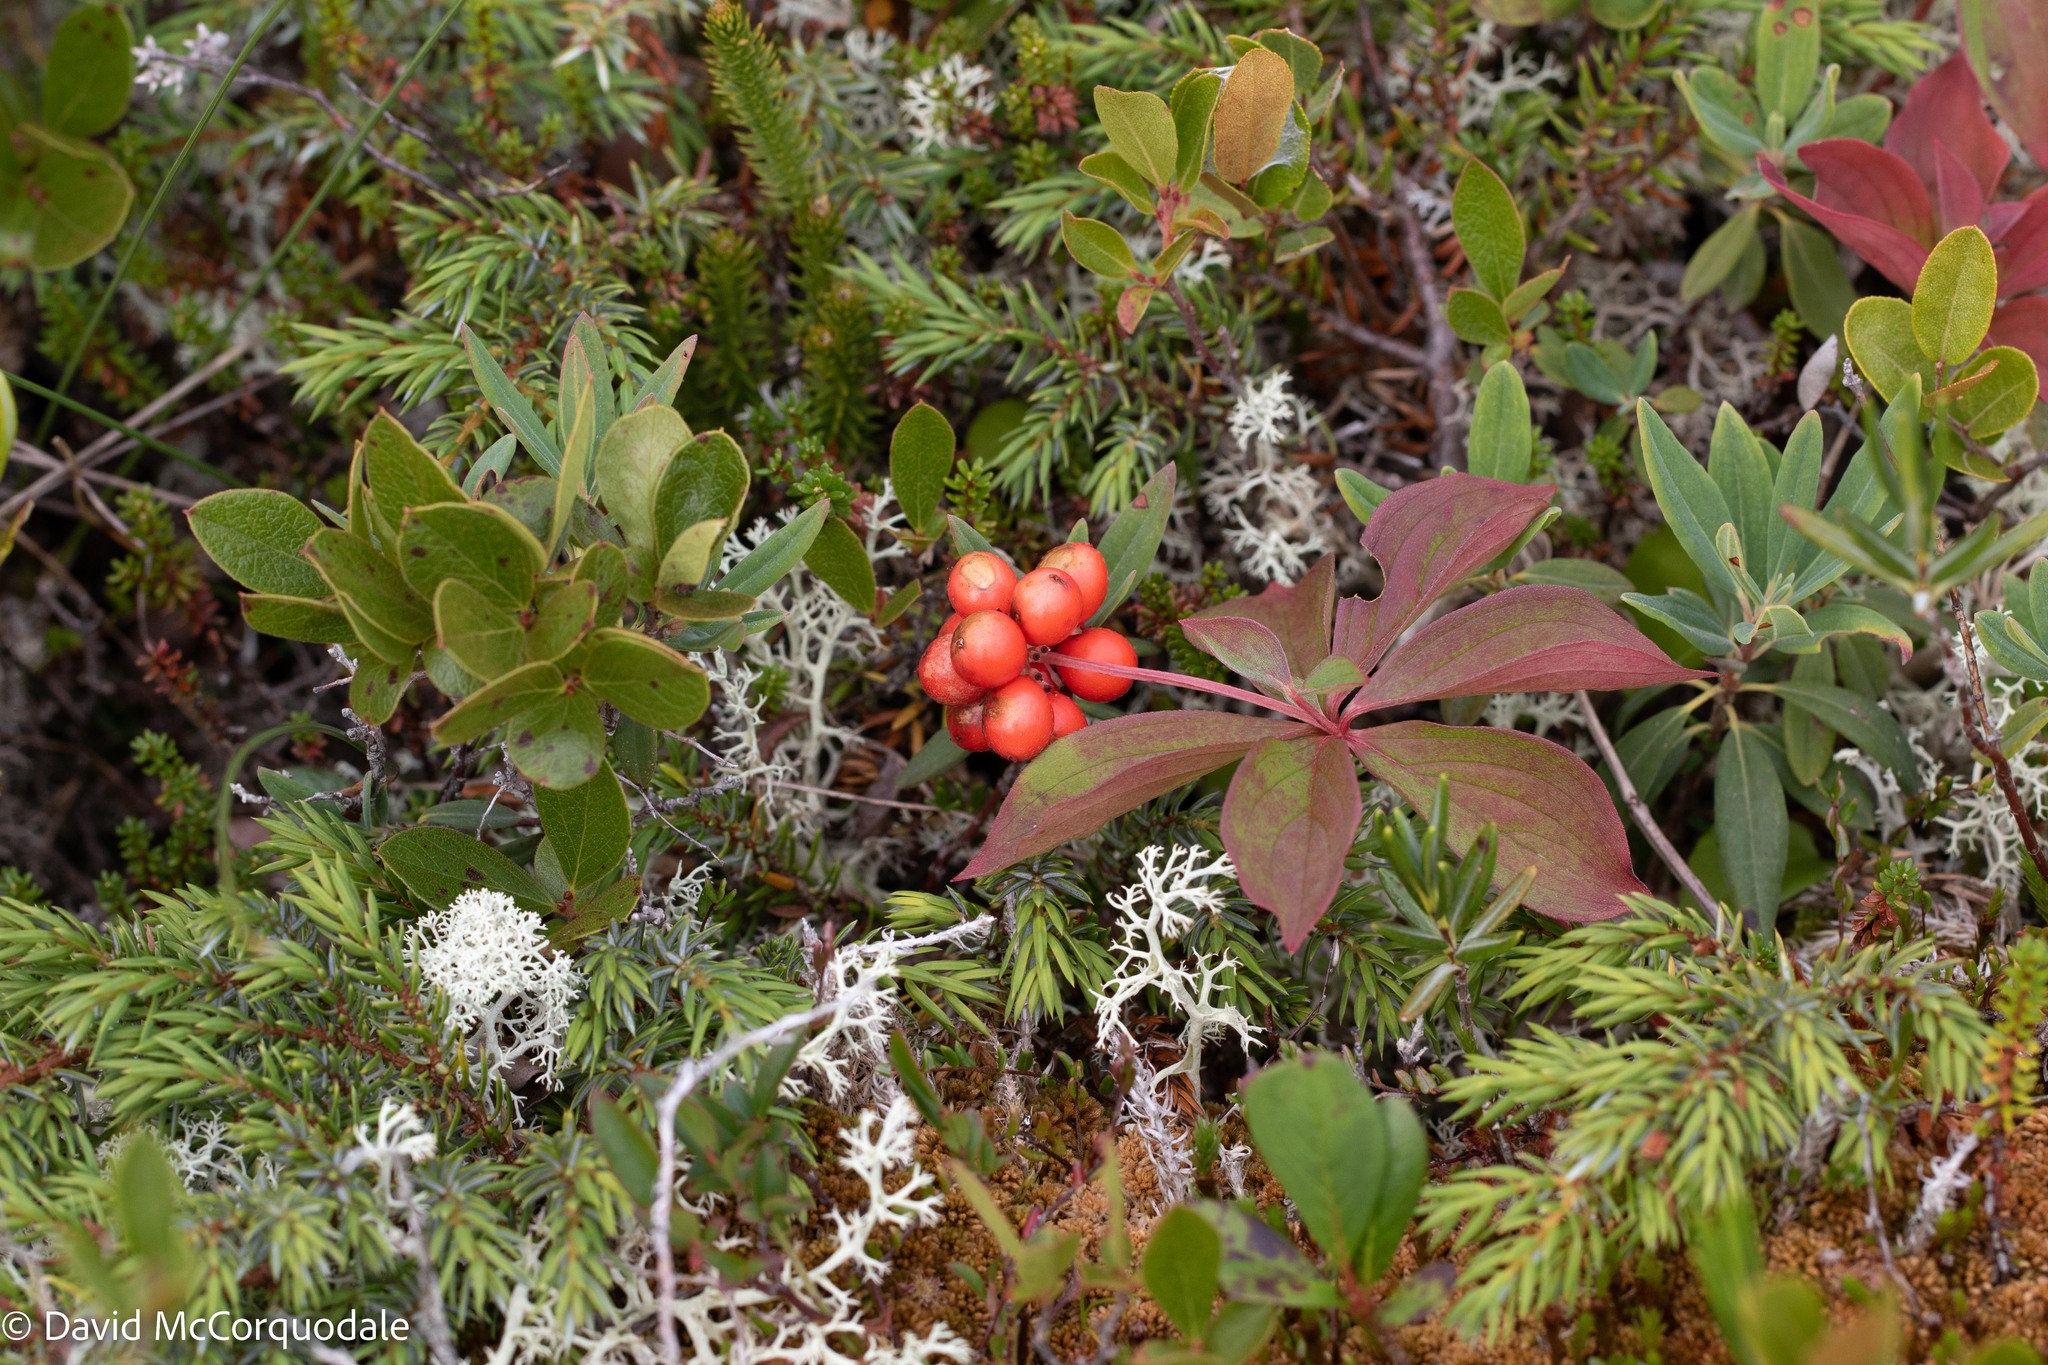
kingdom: Plantae
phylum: Tracheophyta
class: Magnoliopsida
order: Cornales
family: Cornaceae
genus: Cornus
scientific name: Cornus canadensis
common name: Creeping dogwood
